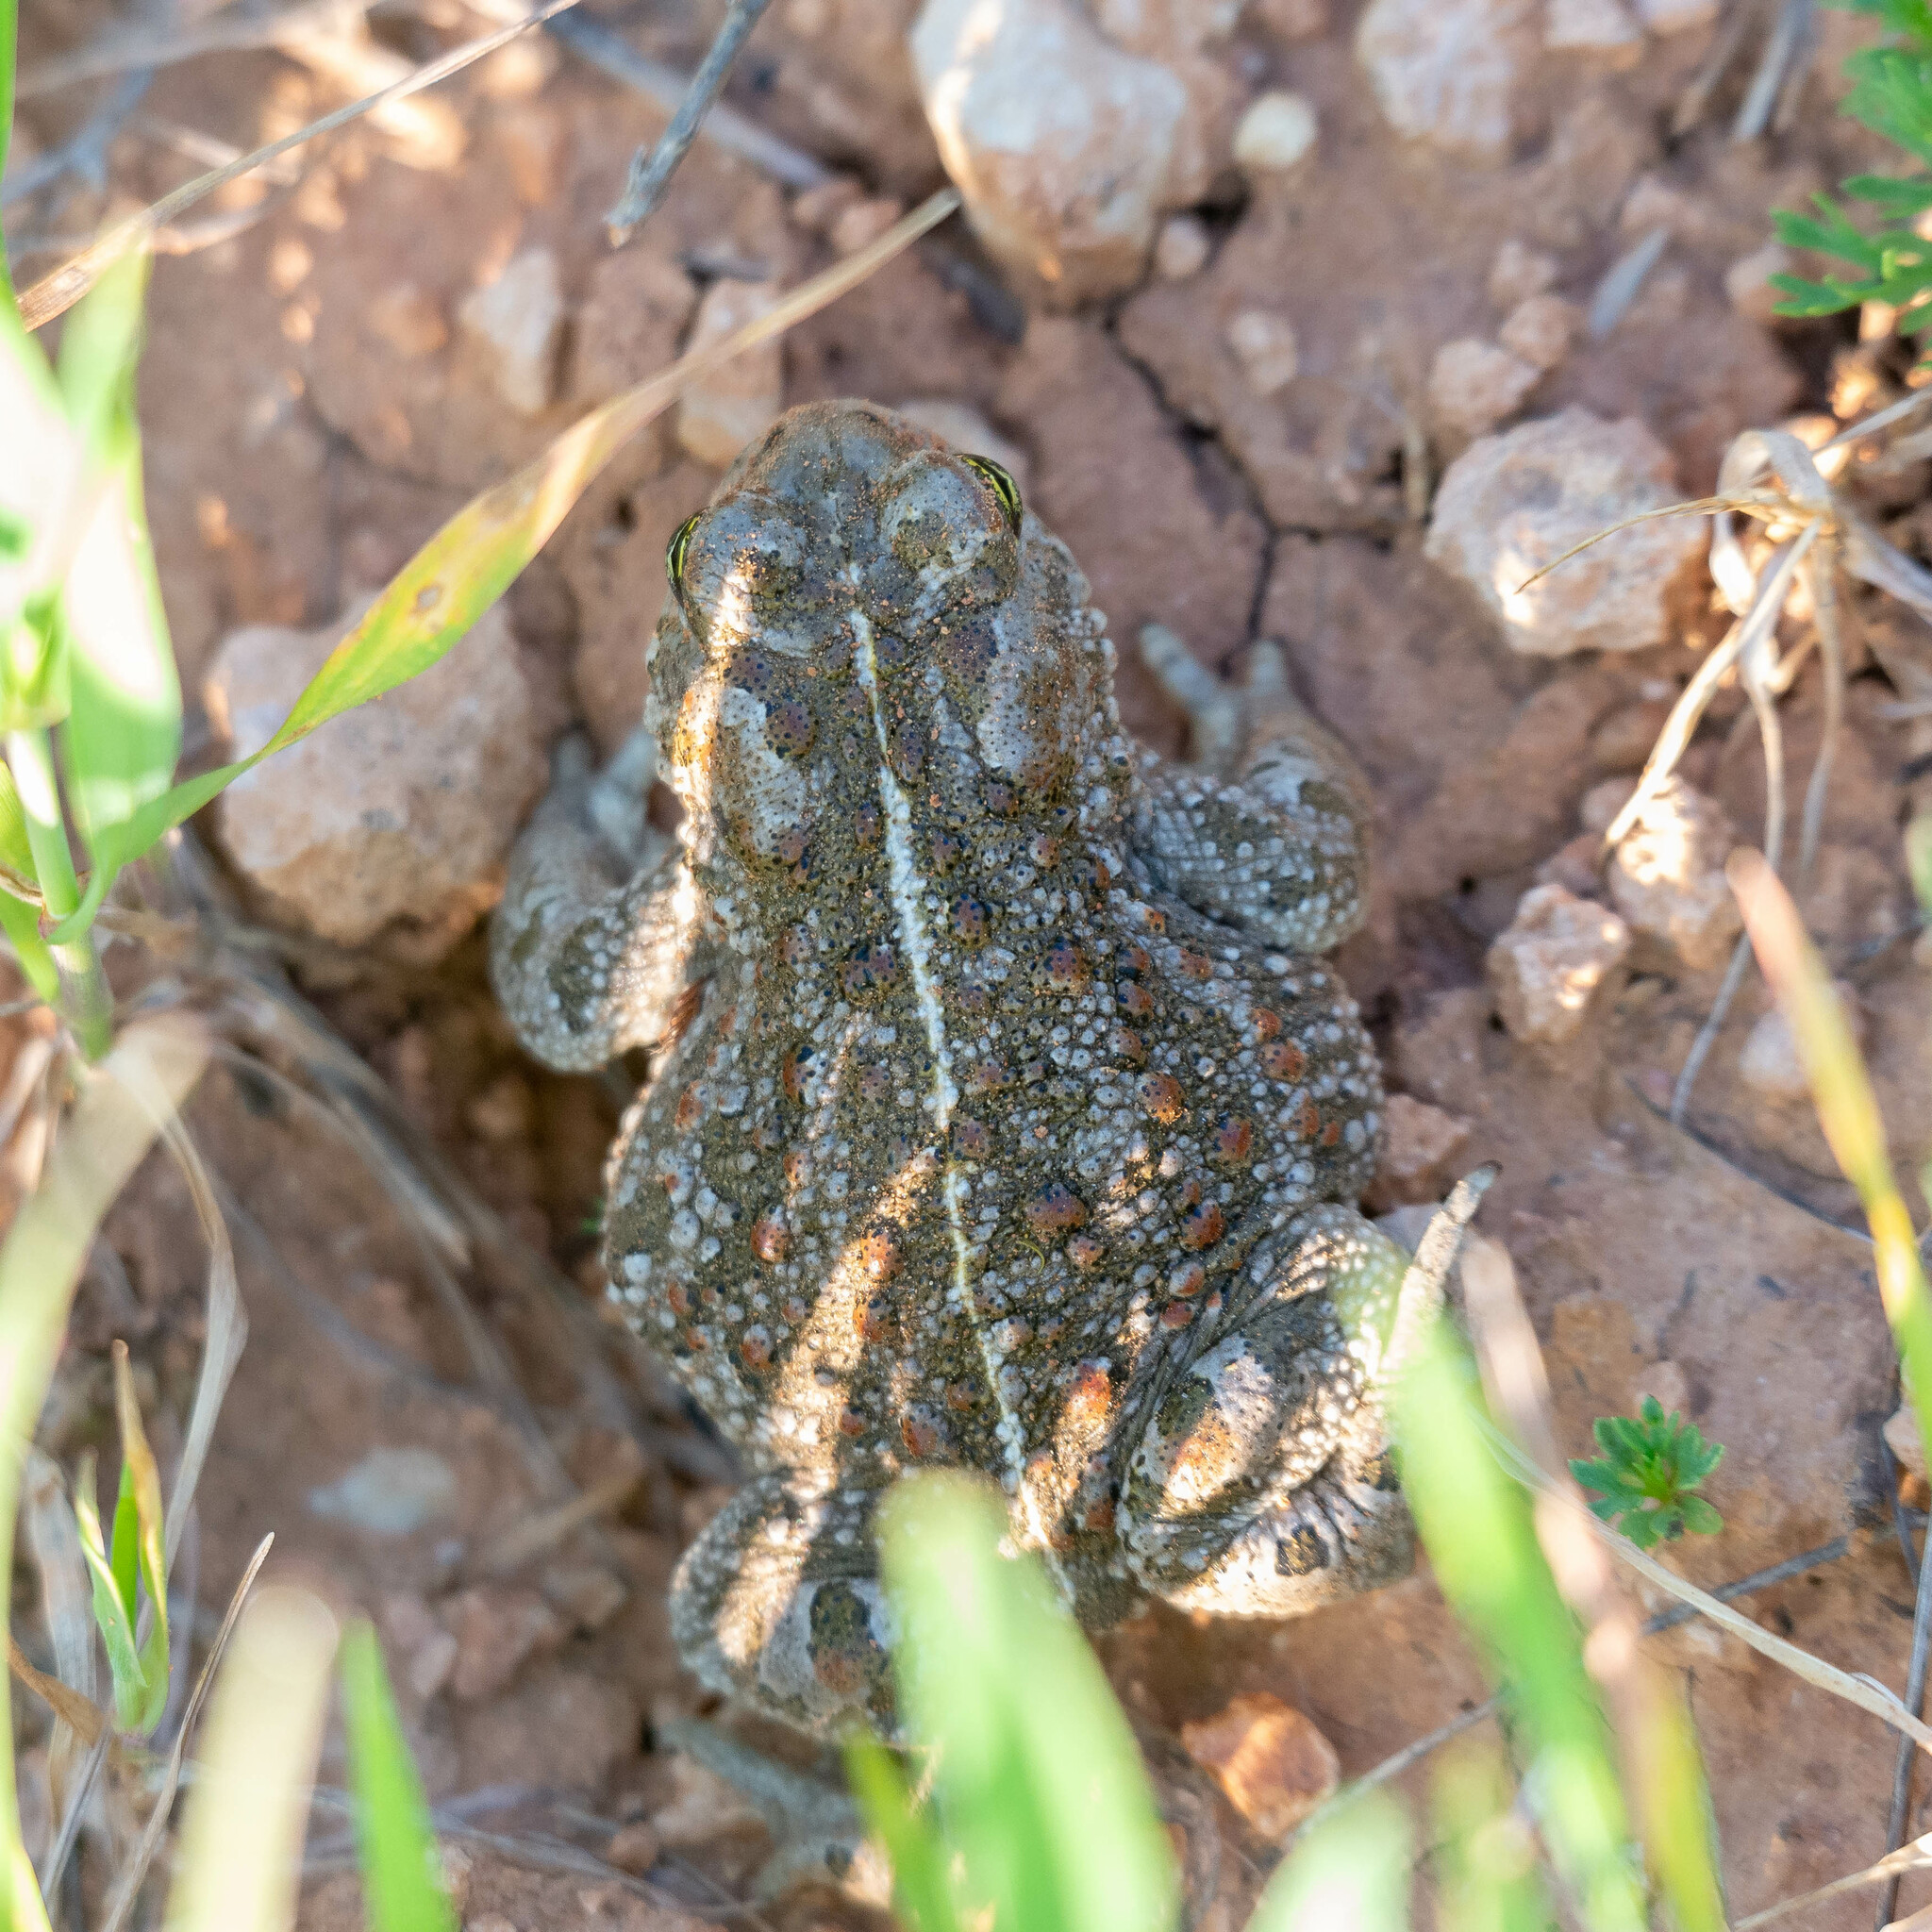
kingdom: Animalia
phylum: Chordata
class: Amphibia
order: Anura
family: Bufonidae
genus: Epidalea
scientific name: Epidalea calamita
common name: Natterjack toad
